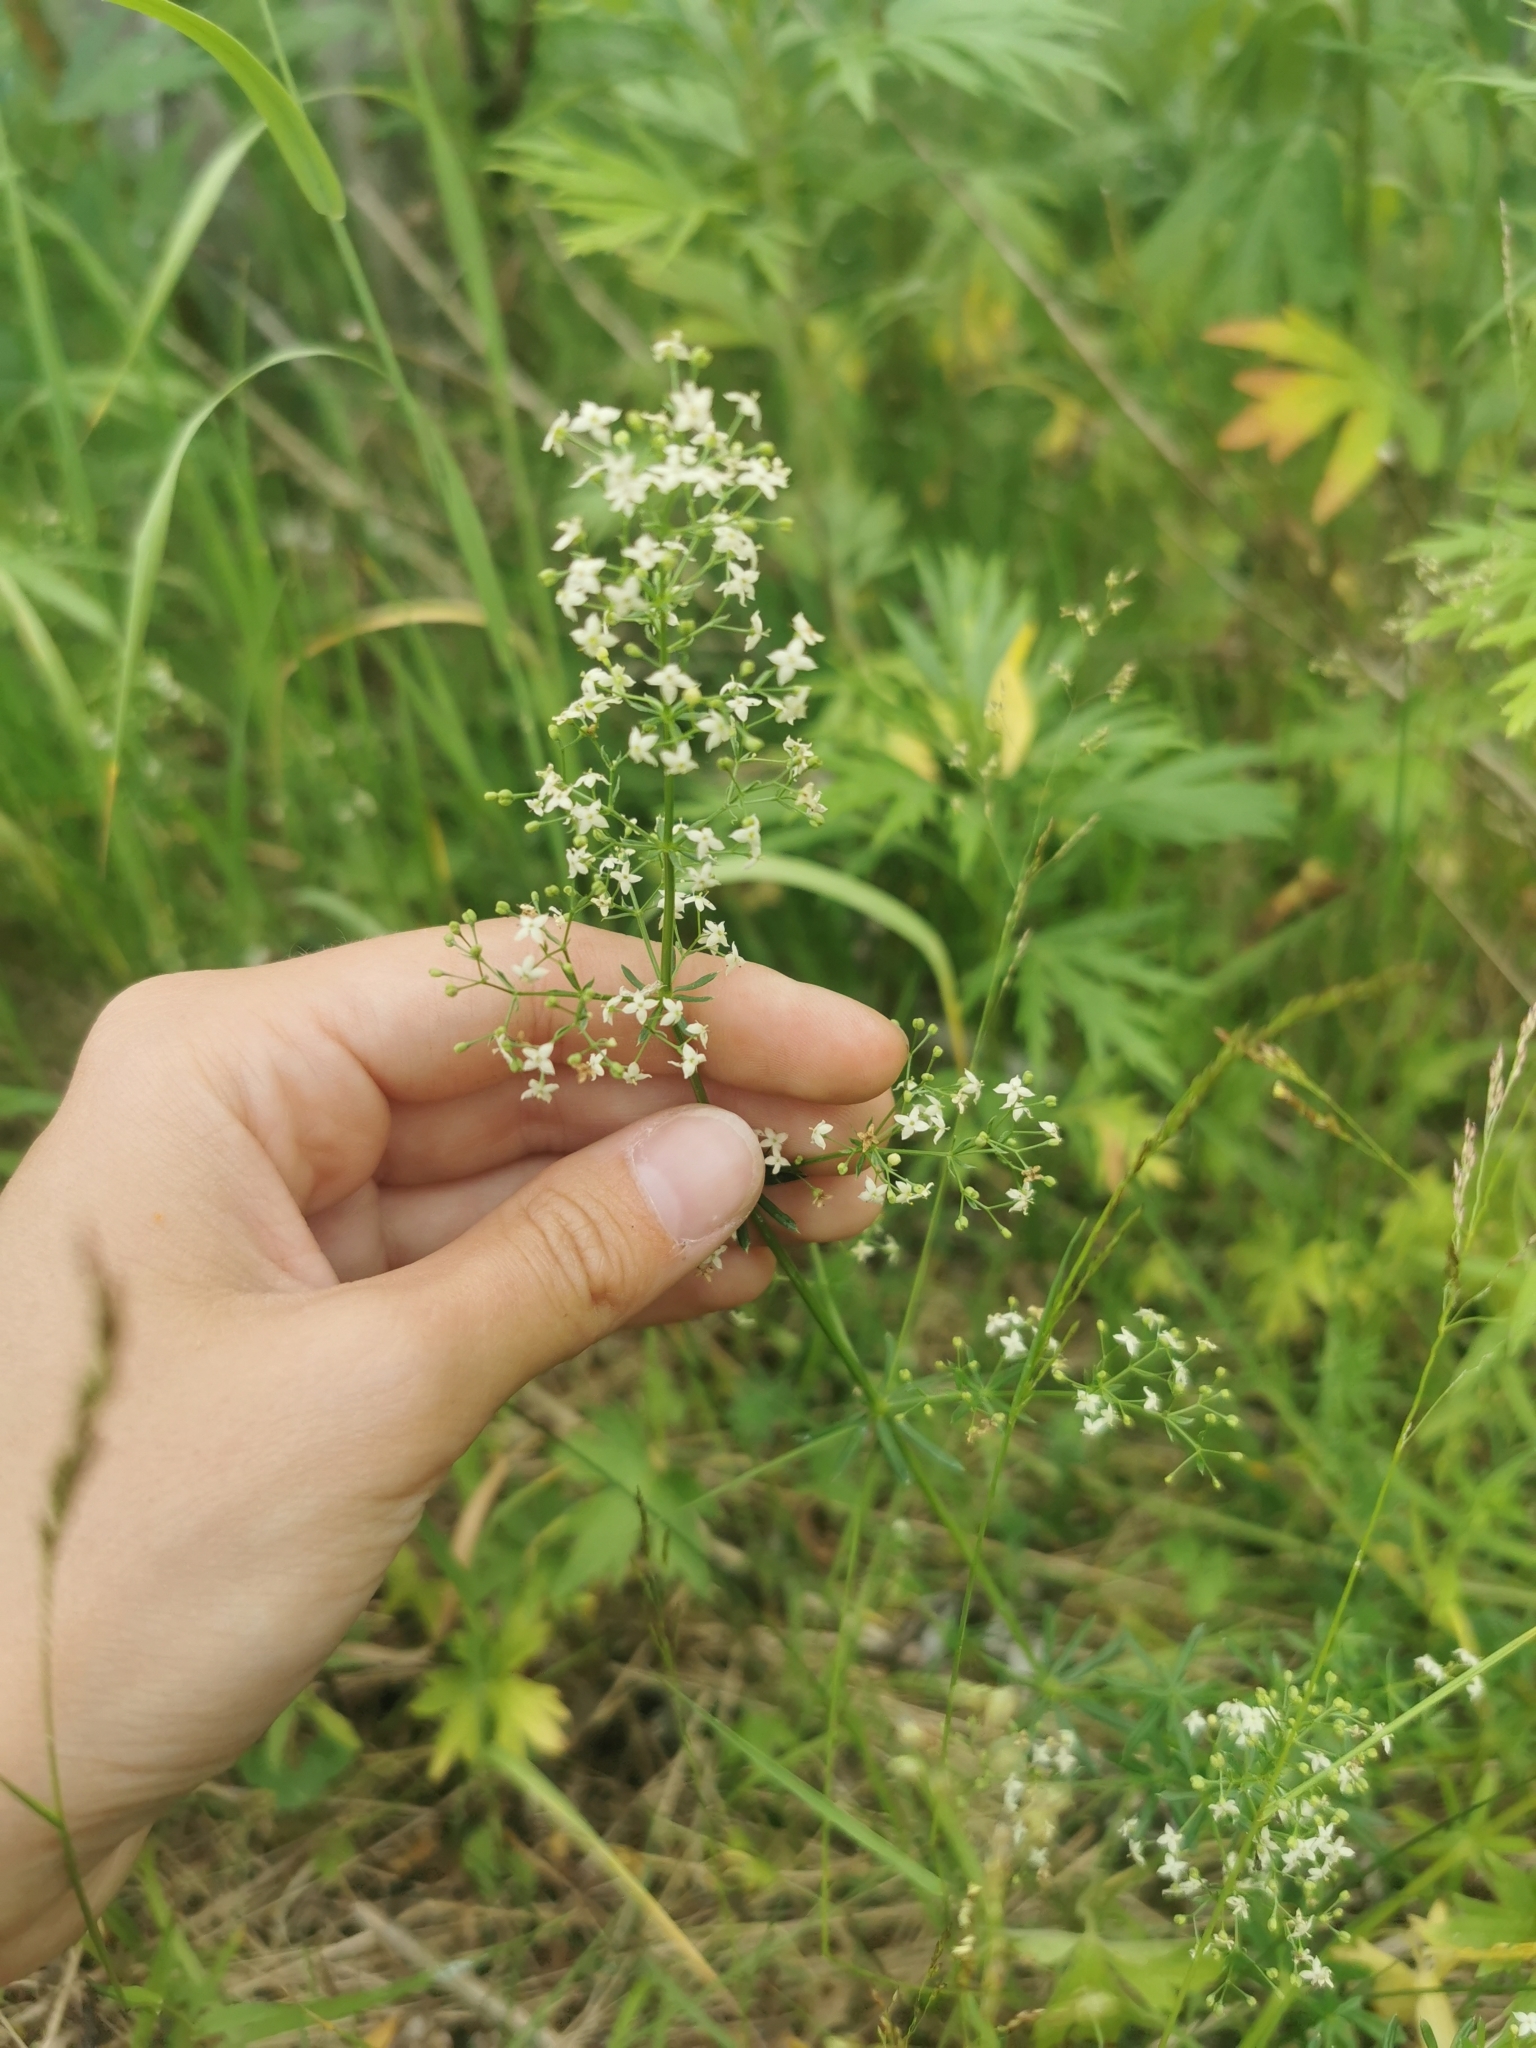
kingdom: Plantae
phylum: Tracheophyta
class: Magnoliopsida
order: Gentianales
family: Rubiaceae
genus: Galium
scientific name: Galium mollugo
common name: Hedge bedstraw
